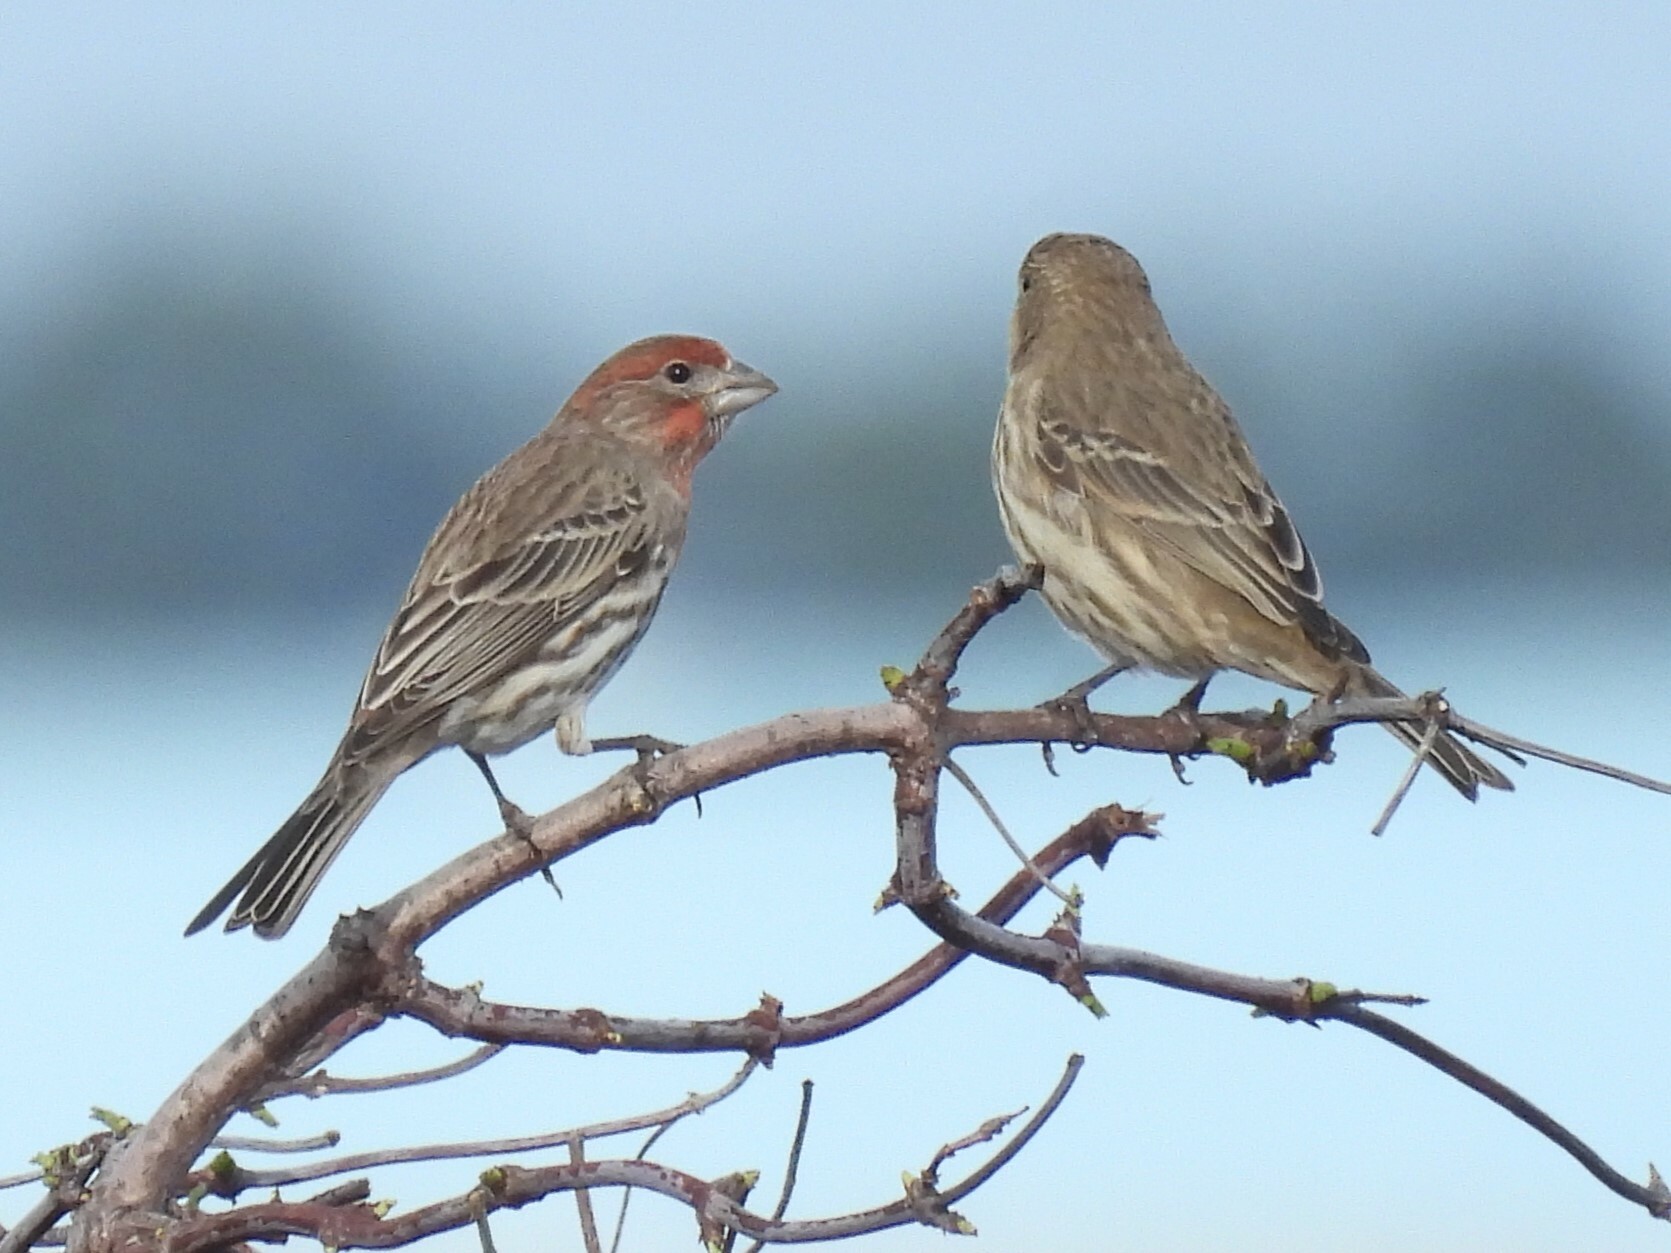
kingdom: Animalia
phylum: Chordata
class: Aves
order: Passeriformes
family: Fringillidae
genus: Haemorhous
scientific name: Haemorhous mexicanus
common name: House finch
